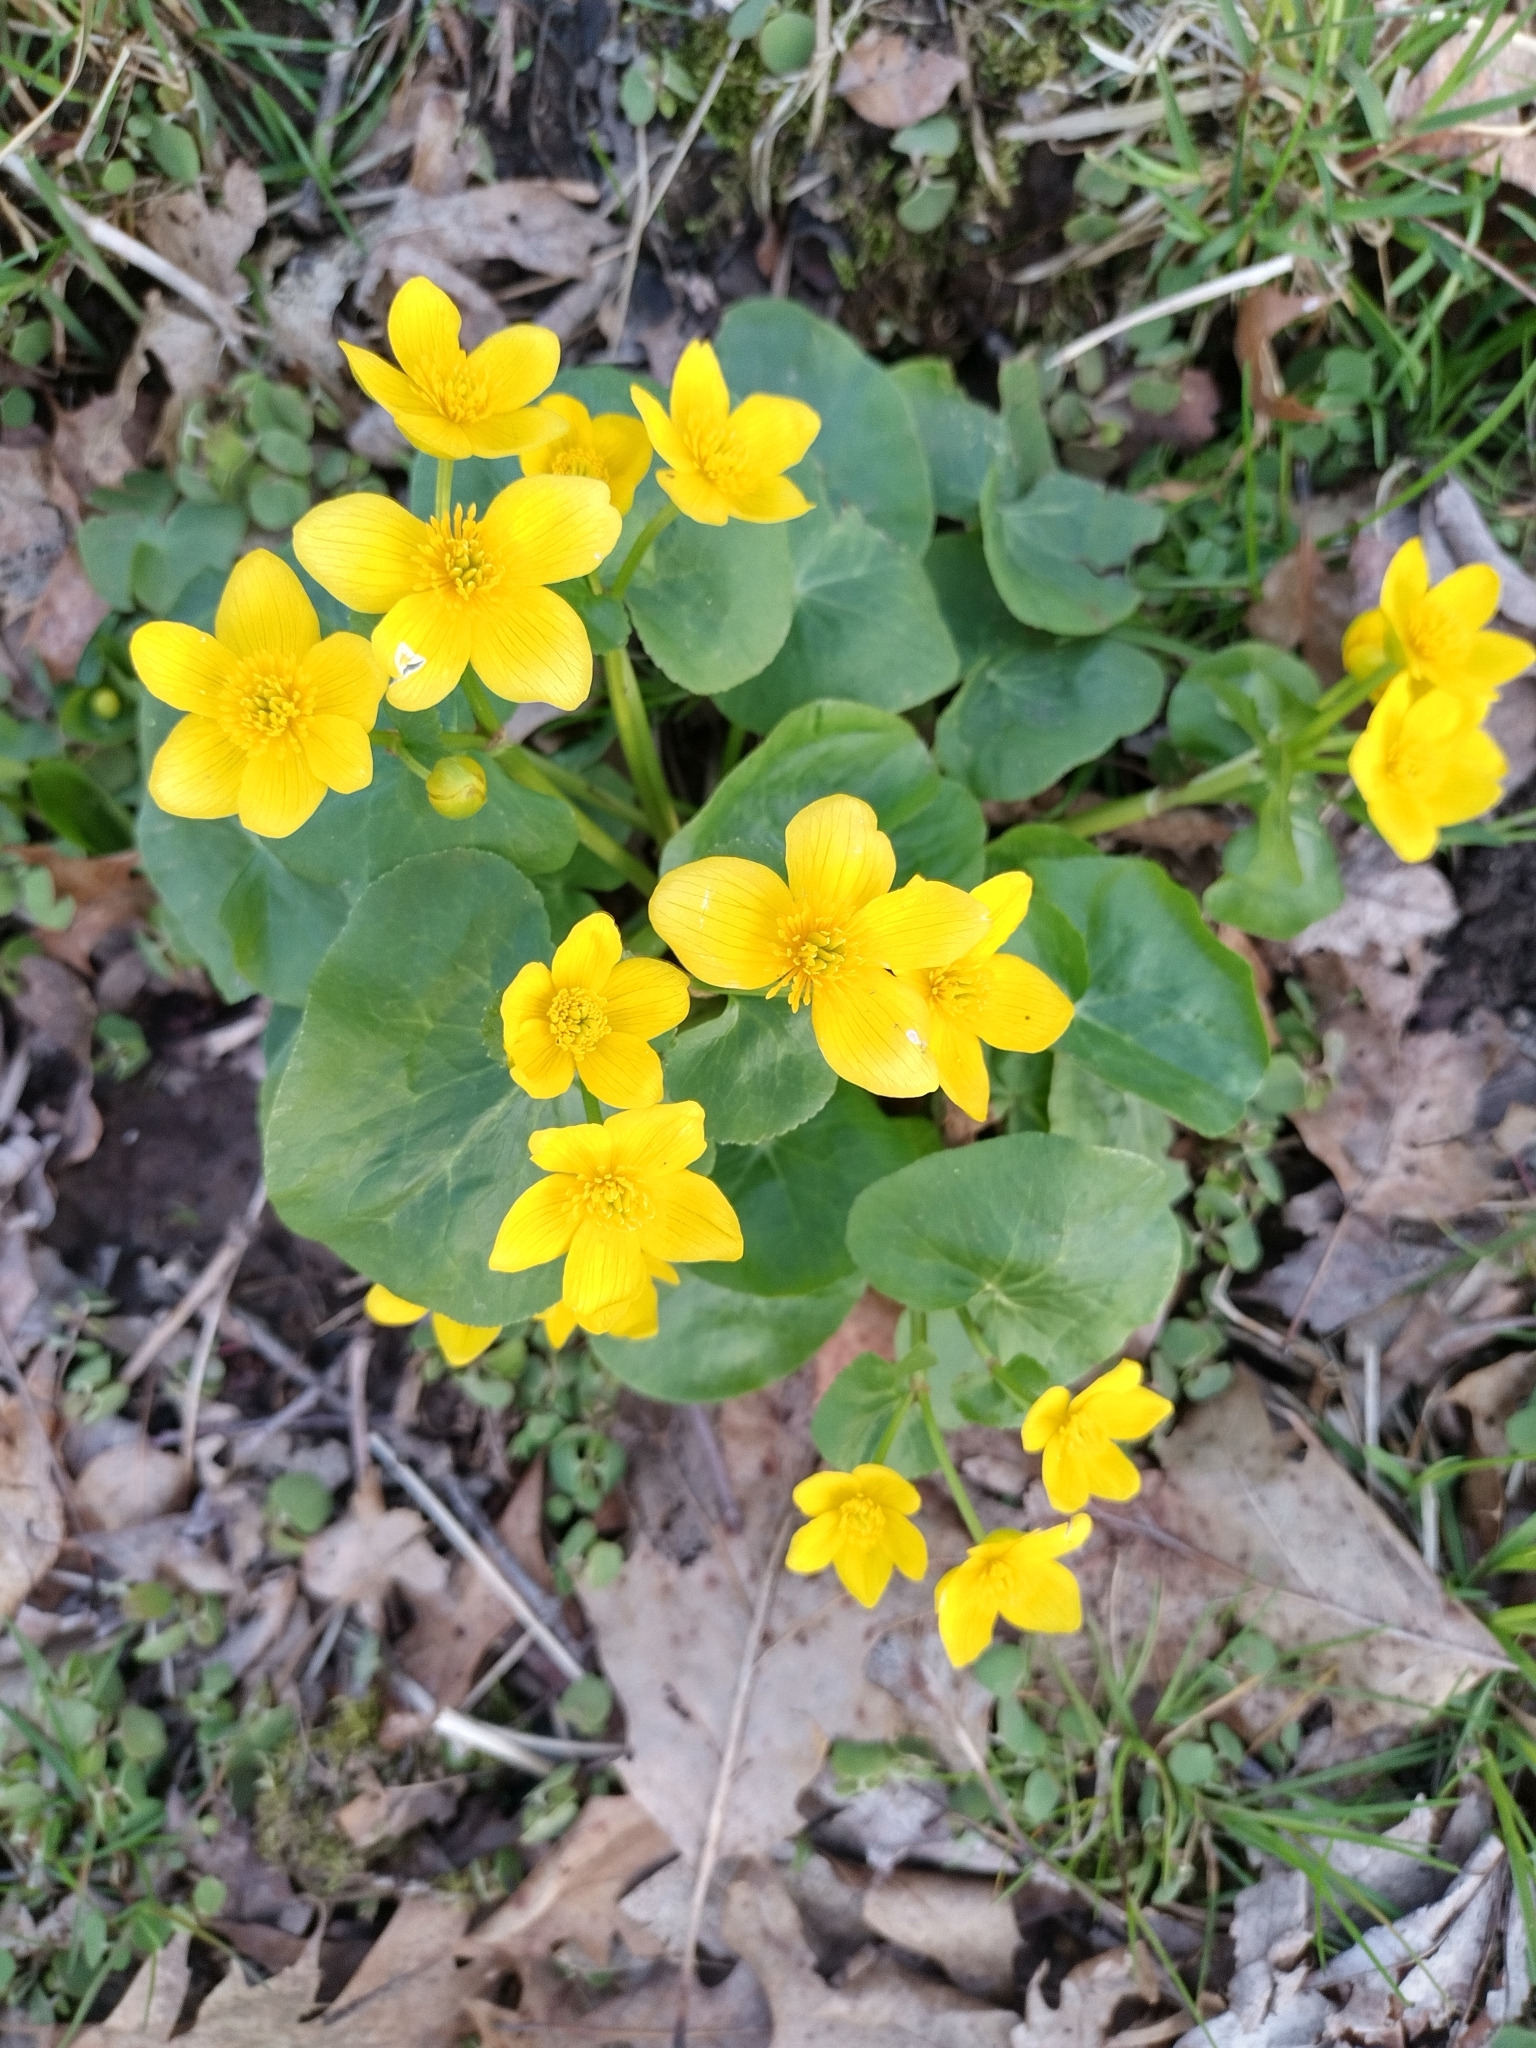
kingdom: Plantae
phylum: Tracheophyta
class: Magnoliopsida
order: Ranunculales
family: Ranunculaceae
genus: Caltha
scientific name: Caltha palustris
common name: Marsh marigold
